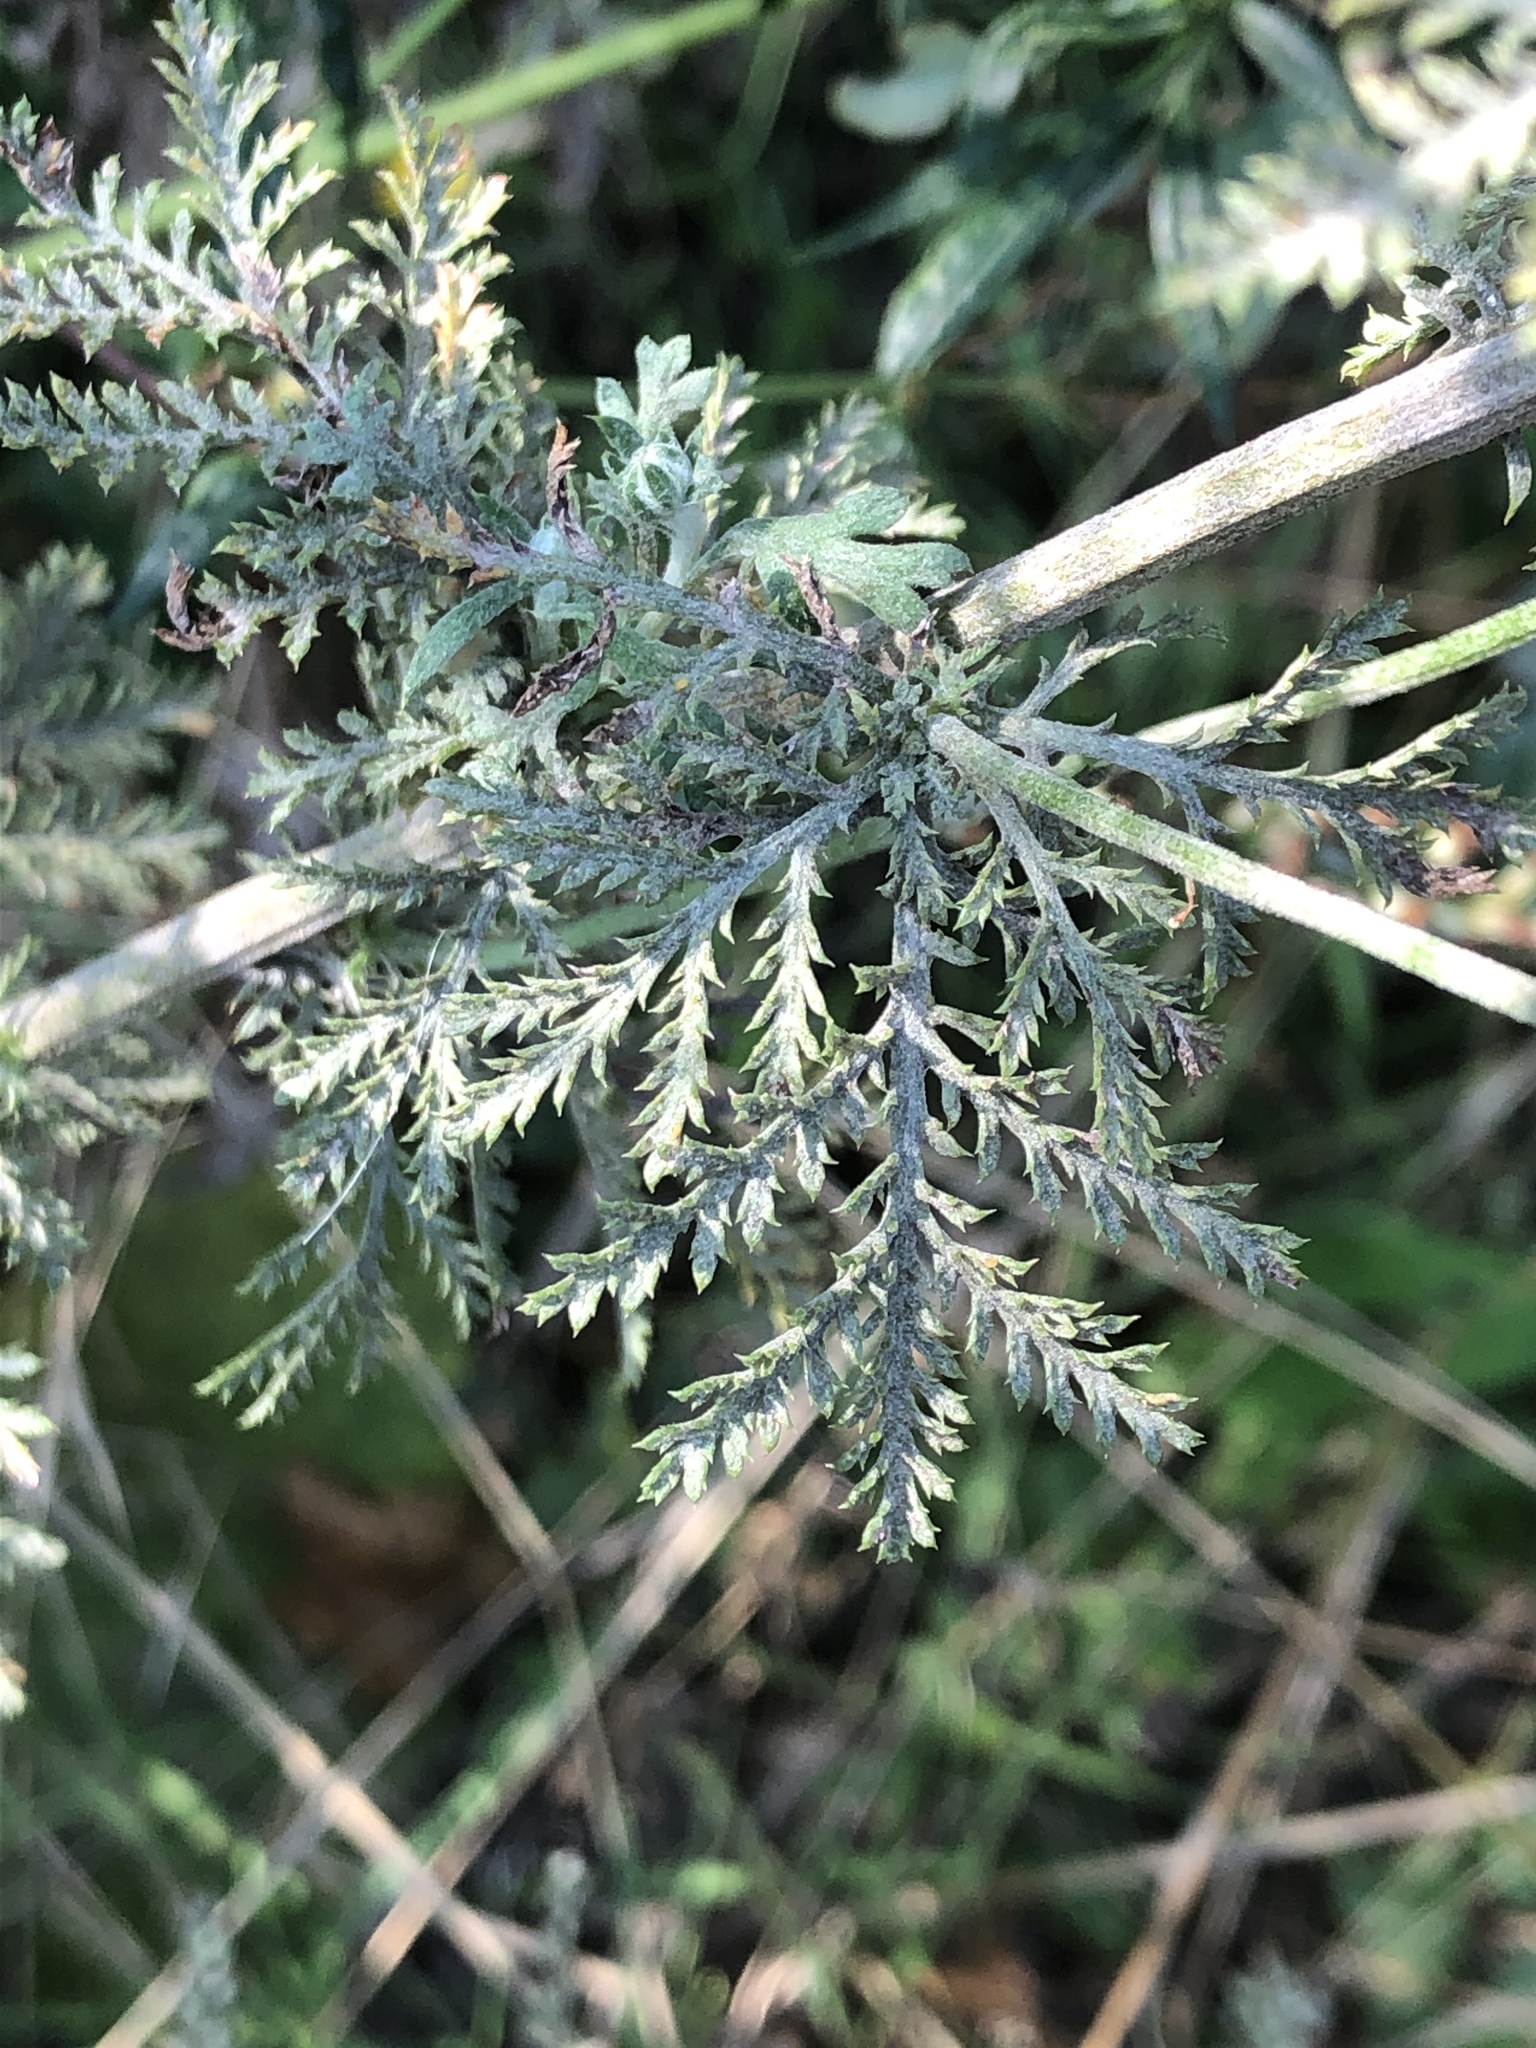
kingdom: Plantae
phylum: Tracheophyta
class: Magnoliopsida
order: Asterales
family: Asteraceae
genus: Cota
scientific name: Cota tinctoria
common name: Golden chamomile
